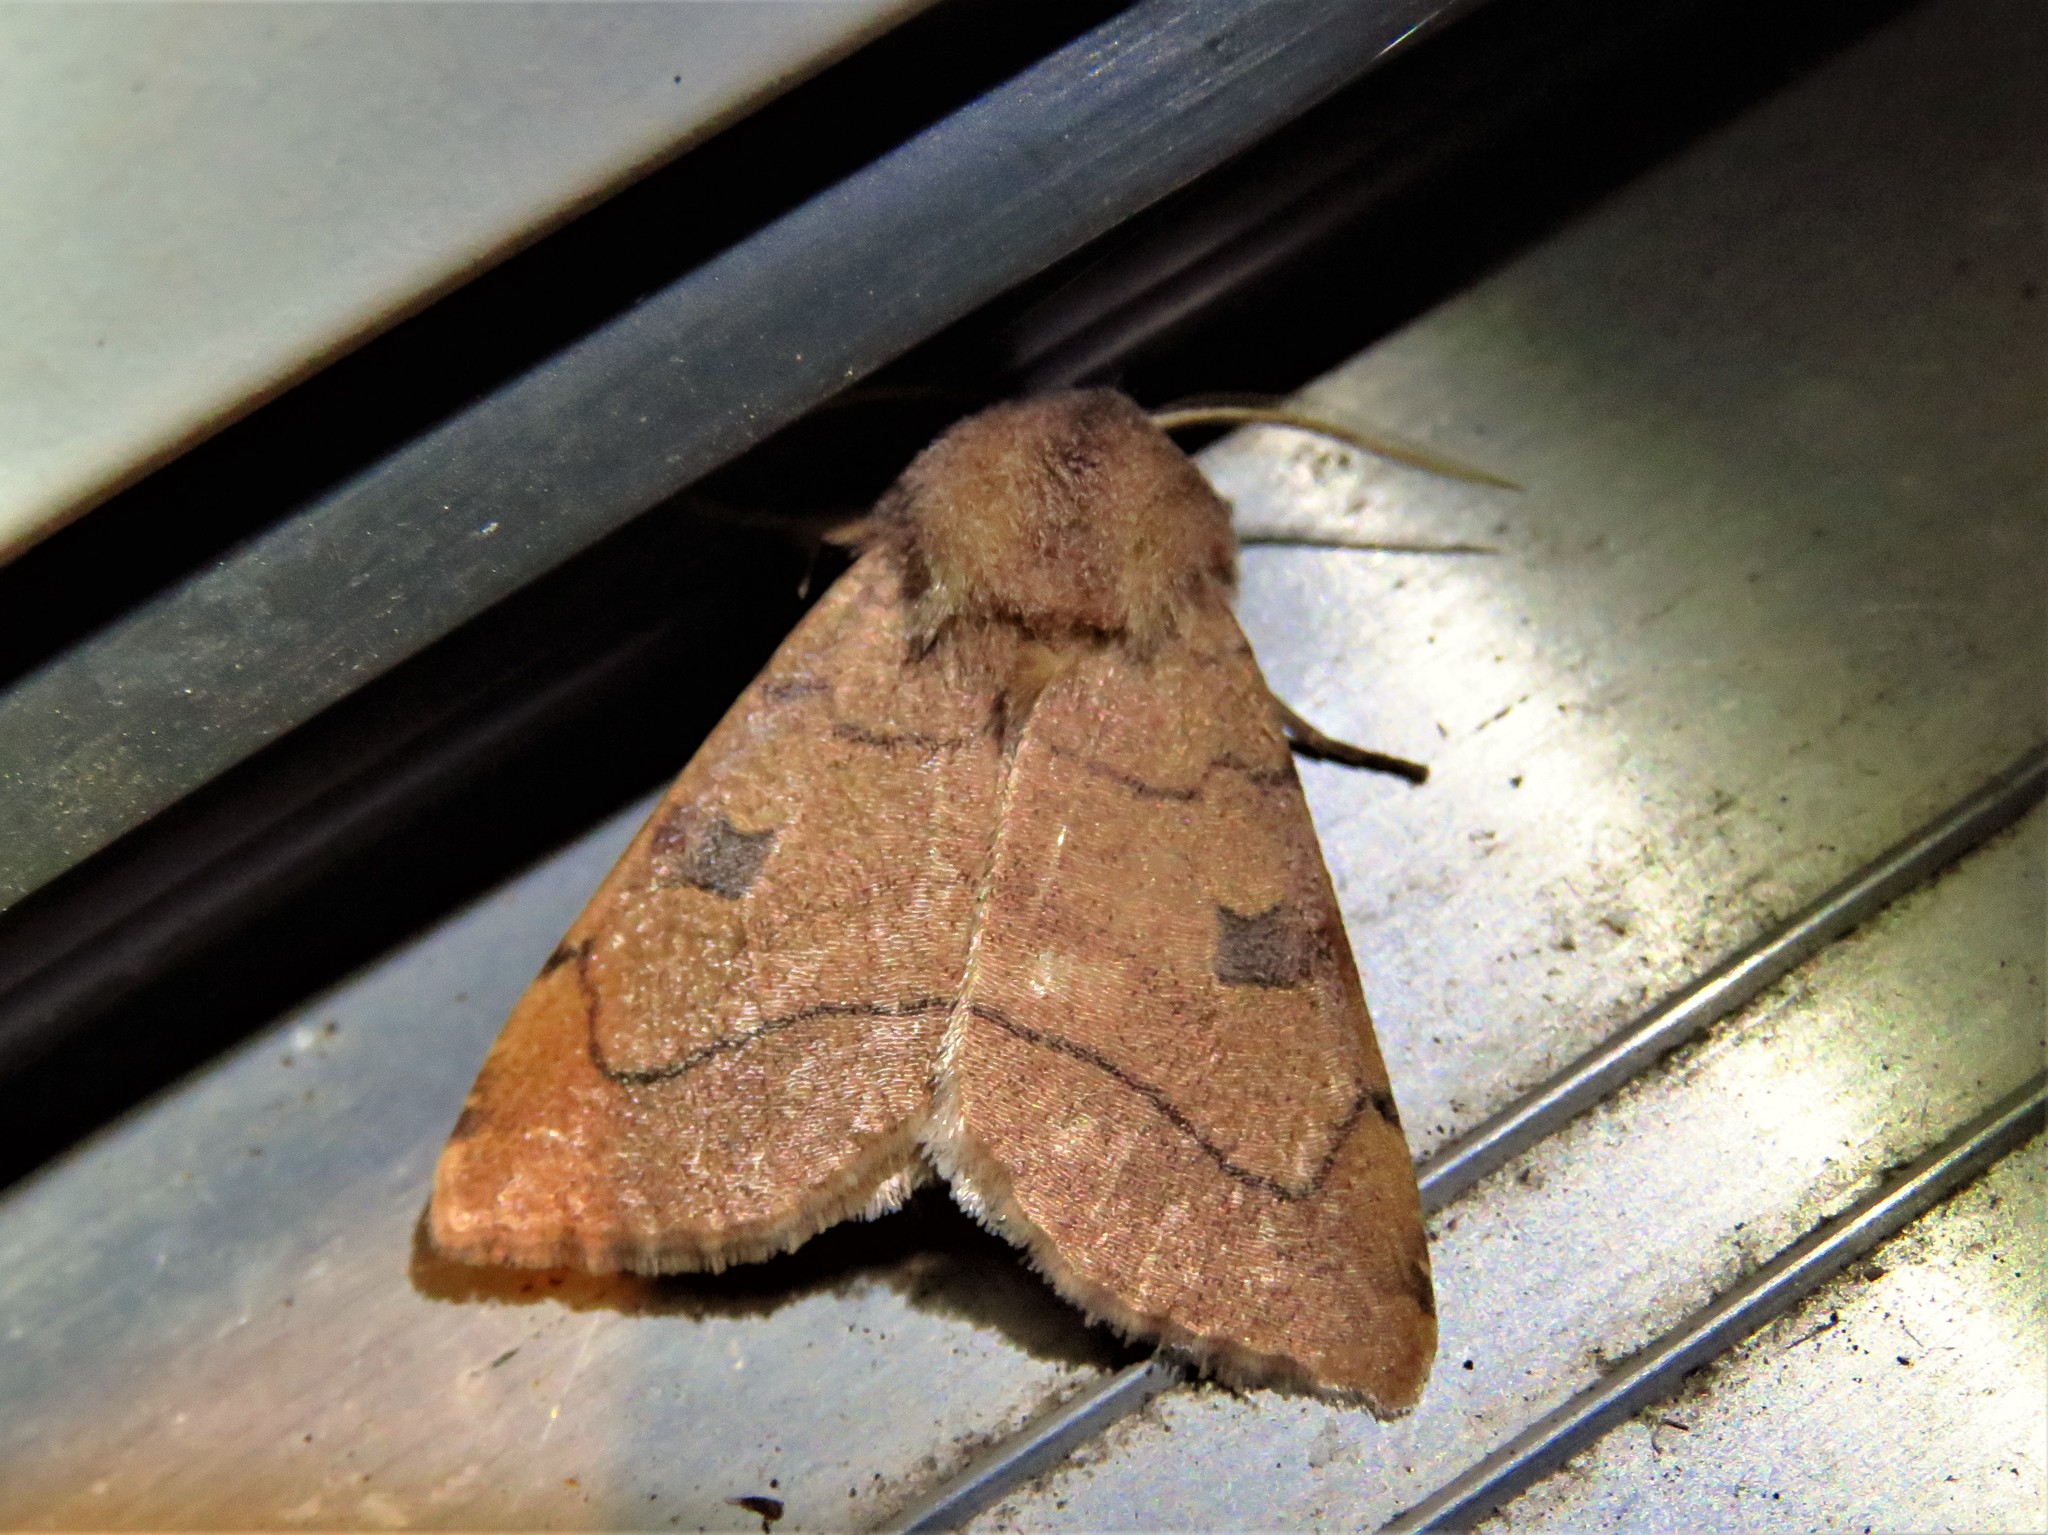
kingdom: Animalia
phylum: Arthropoda
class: Insecta
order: Lepidoptera
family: Noctuidae
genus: Choephora
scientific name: Choephora fungorum
